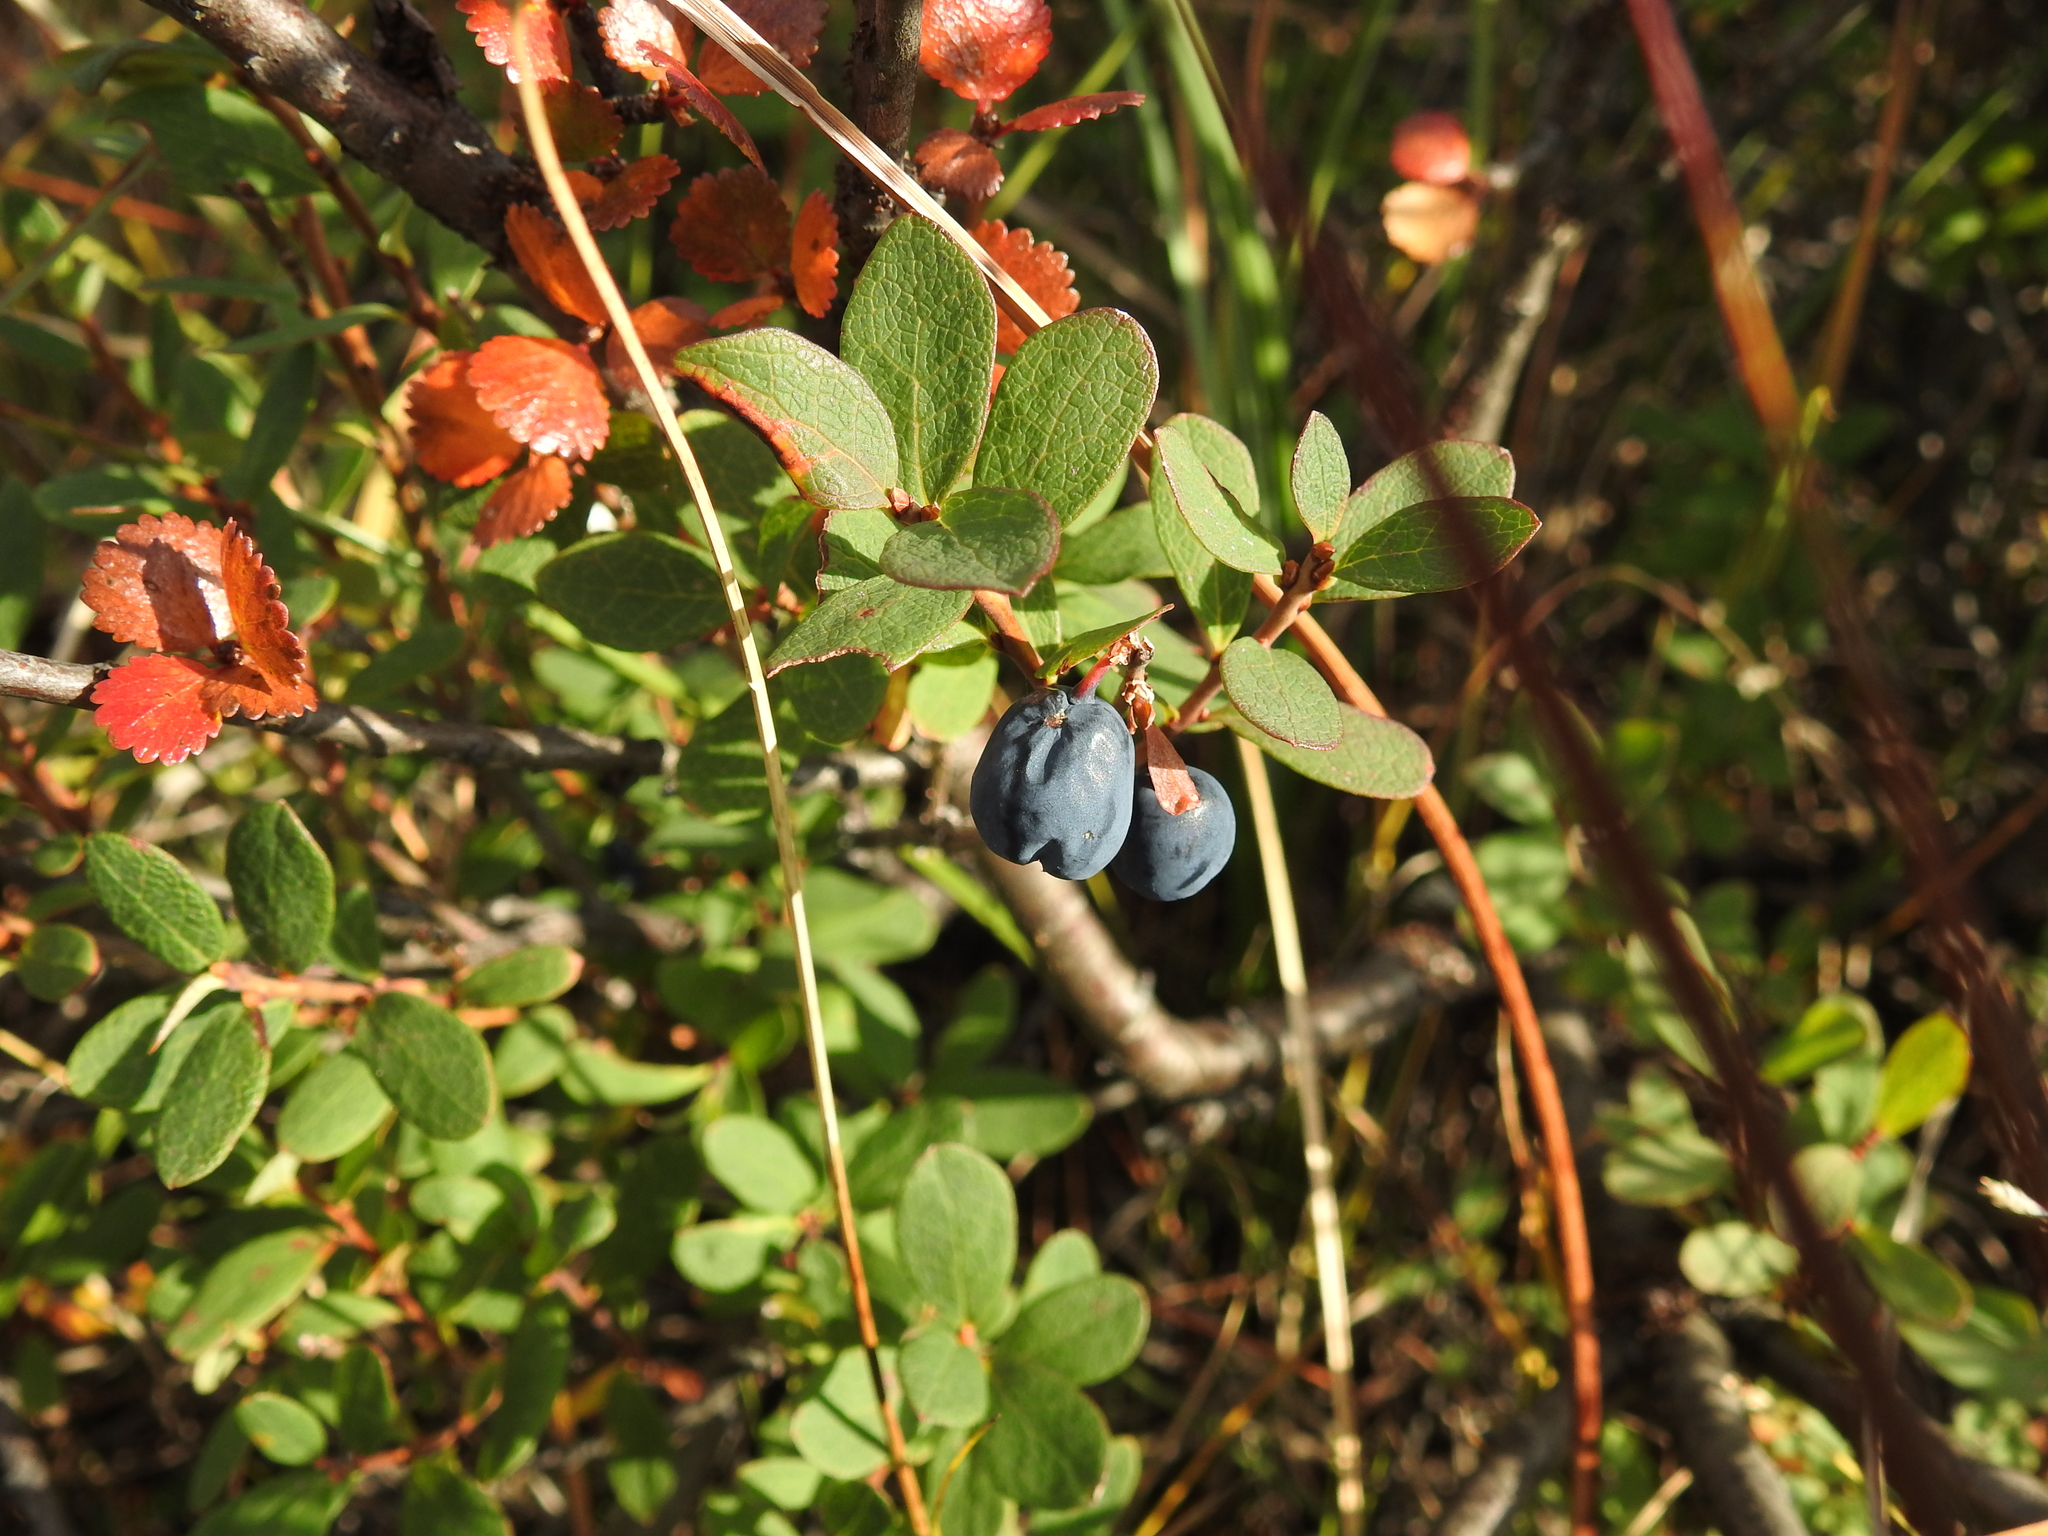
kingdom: Plantae
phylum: Tracheophyta
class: Magnoliopsida
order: Ericales
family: Ericaceae
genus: Vaccinium
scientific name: Vaccinium uliginosum
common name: Bog bilberry
